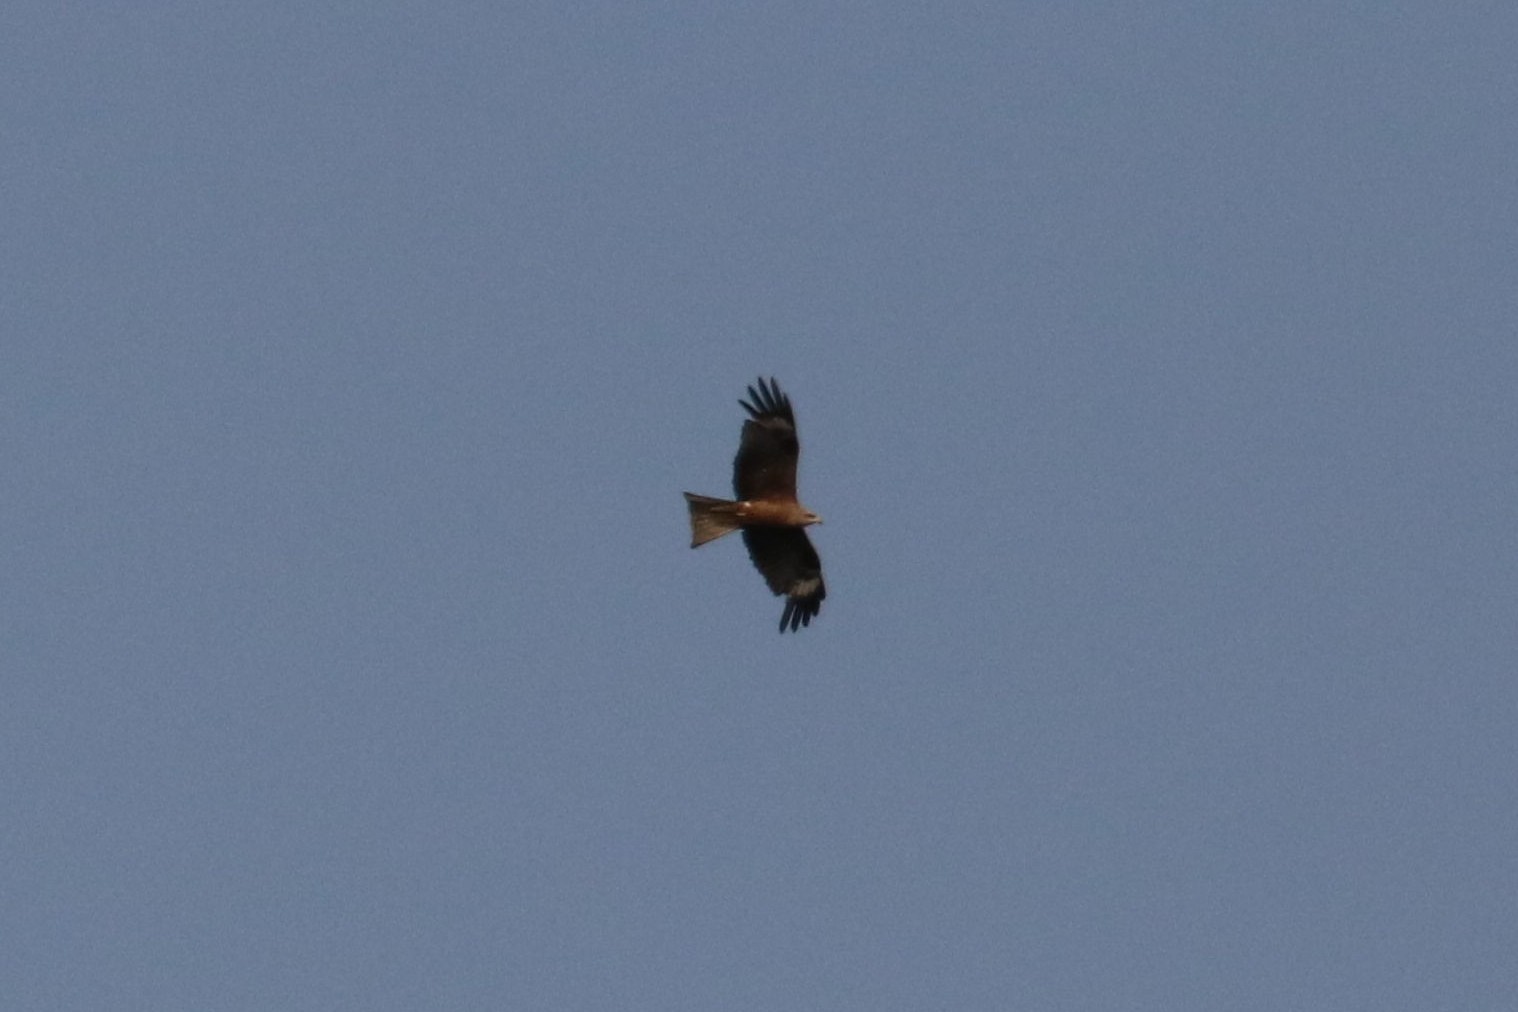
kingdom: Animalia
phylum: Chordata
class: Aves
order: Accipitriformes
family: Accipitridae
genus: Milvus
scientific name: Milvus migrans
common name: Black kite
